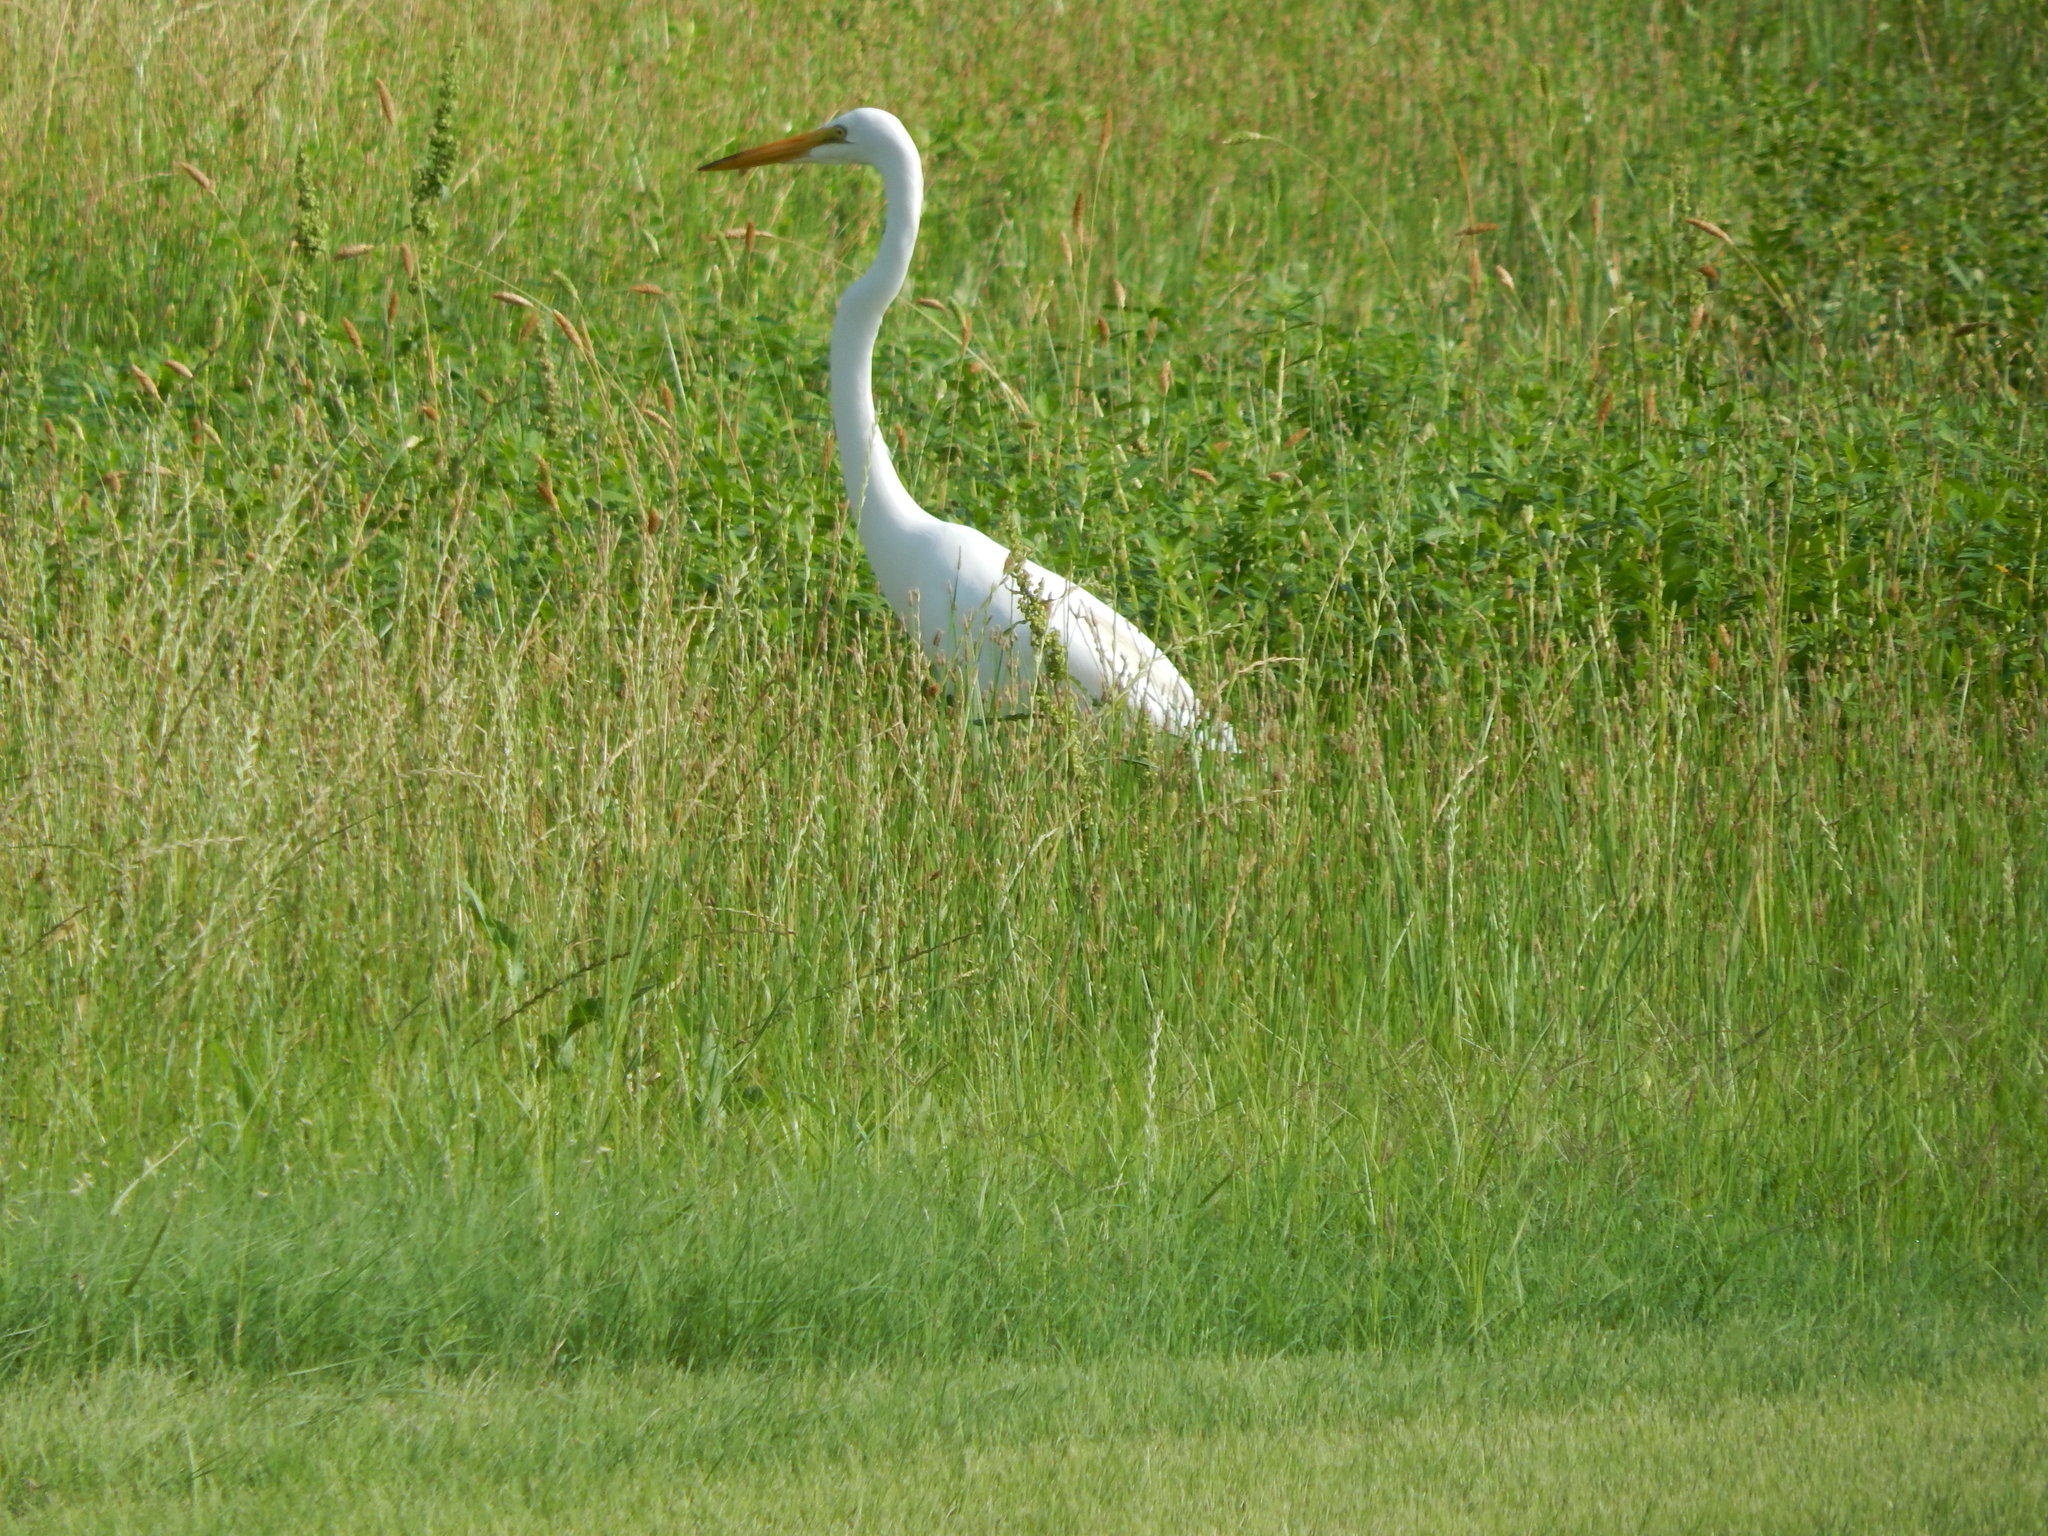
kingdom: Animalia
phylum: Chordata
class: Aves
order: Pelecaniformes
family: Ardeidae
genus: Ardea
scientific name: Ardea alba
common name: Great egret
